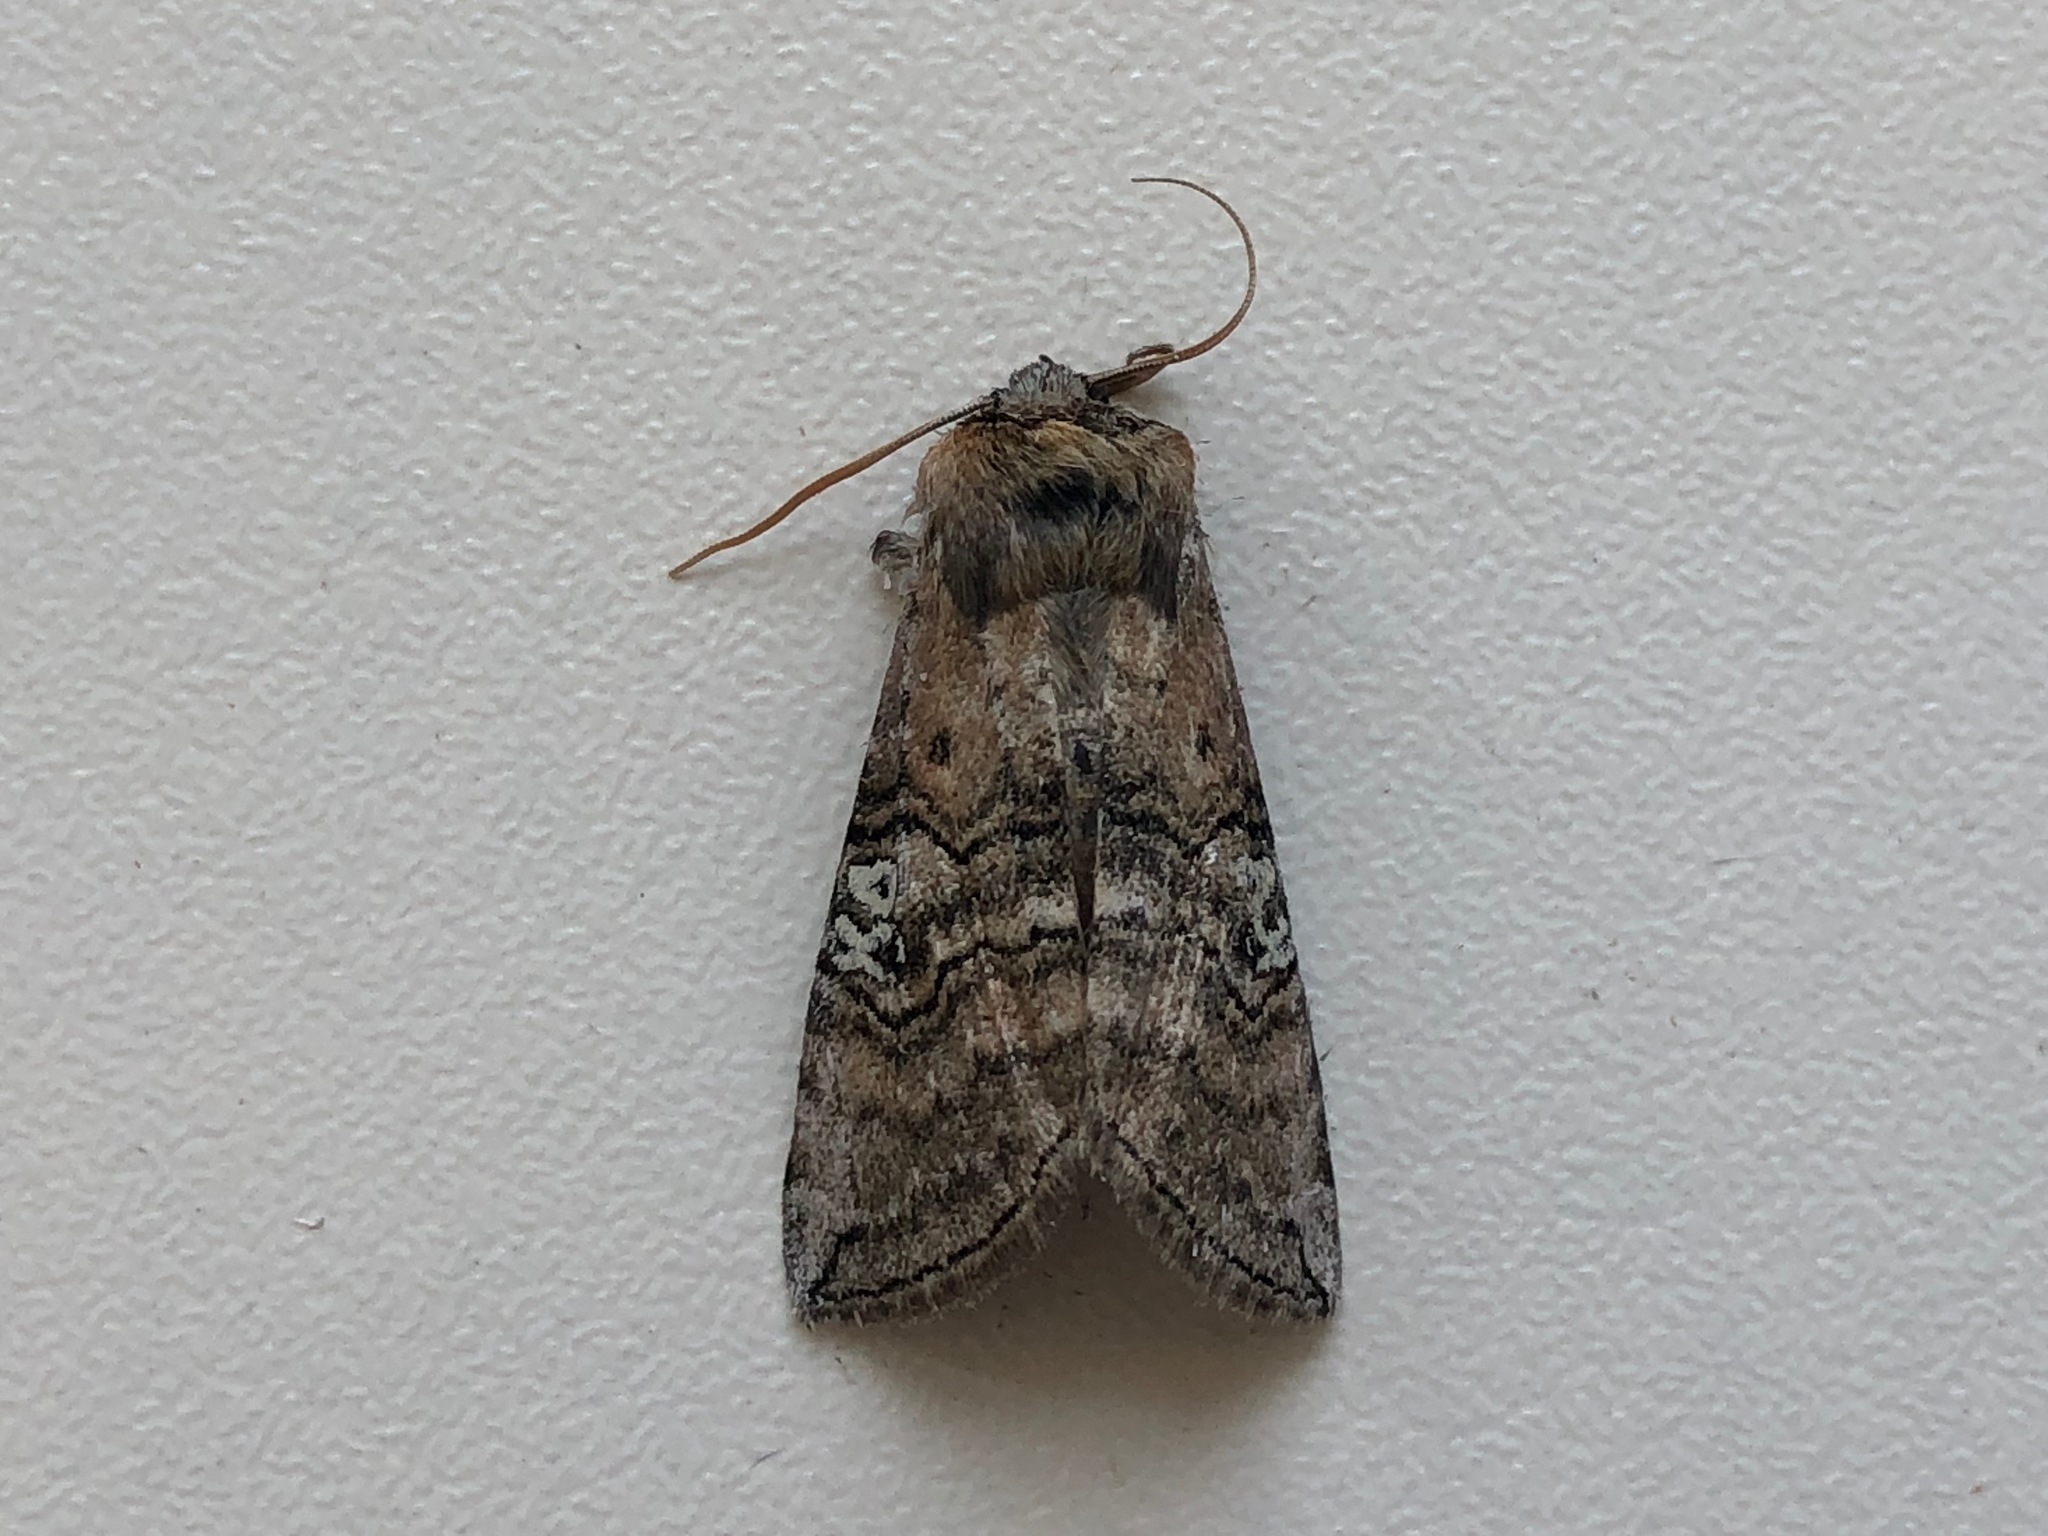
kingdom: Animalia
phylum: Arthropoda
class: Insecta
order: Lepidoptera
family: Drepanidae
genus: Tethea
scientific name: Tethea ocularis
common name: Figure of eighty
